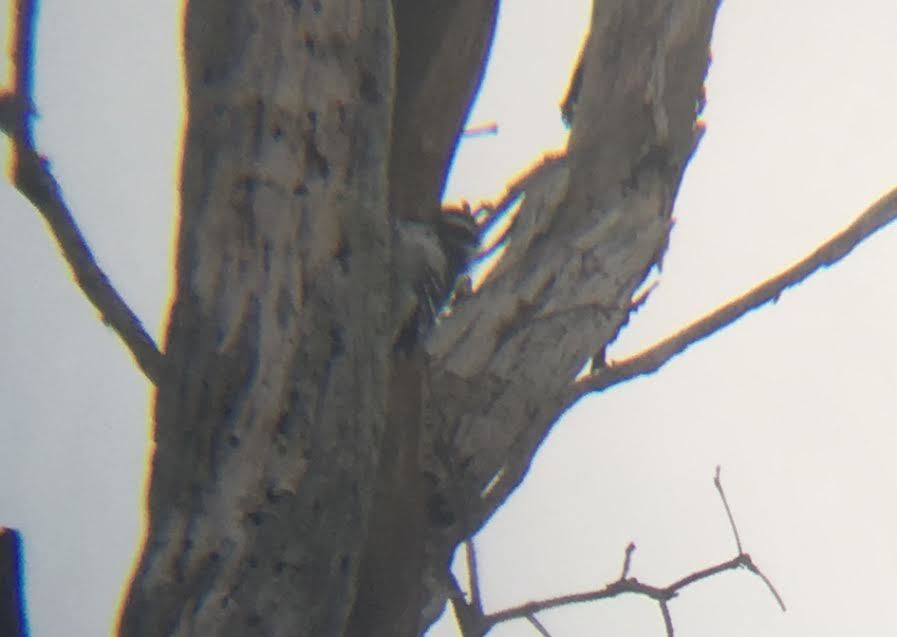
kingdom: Animalia
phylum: Chordata
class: Aves
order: Piciformes
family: Picidae
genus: Dryobates
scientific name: Dryobates pubescens
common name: Downy woodpecker
